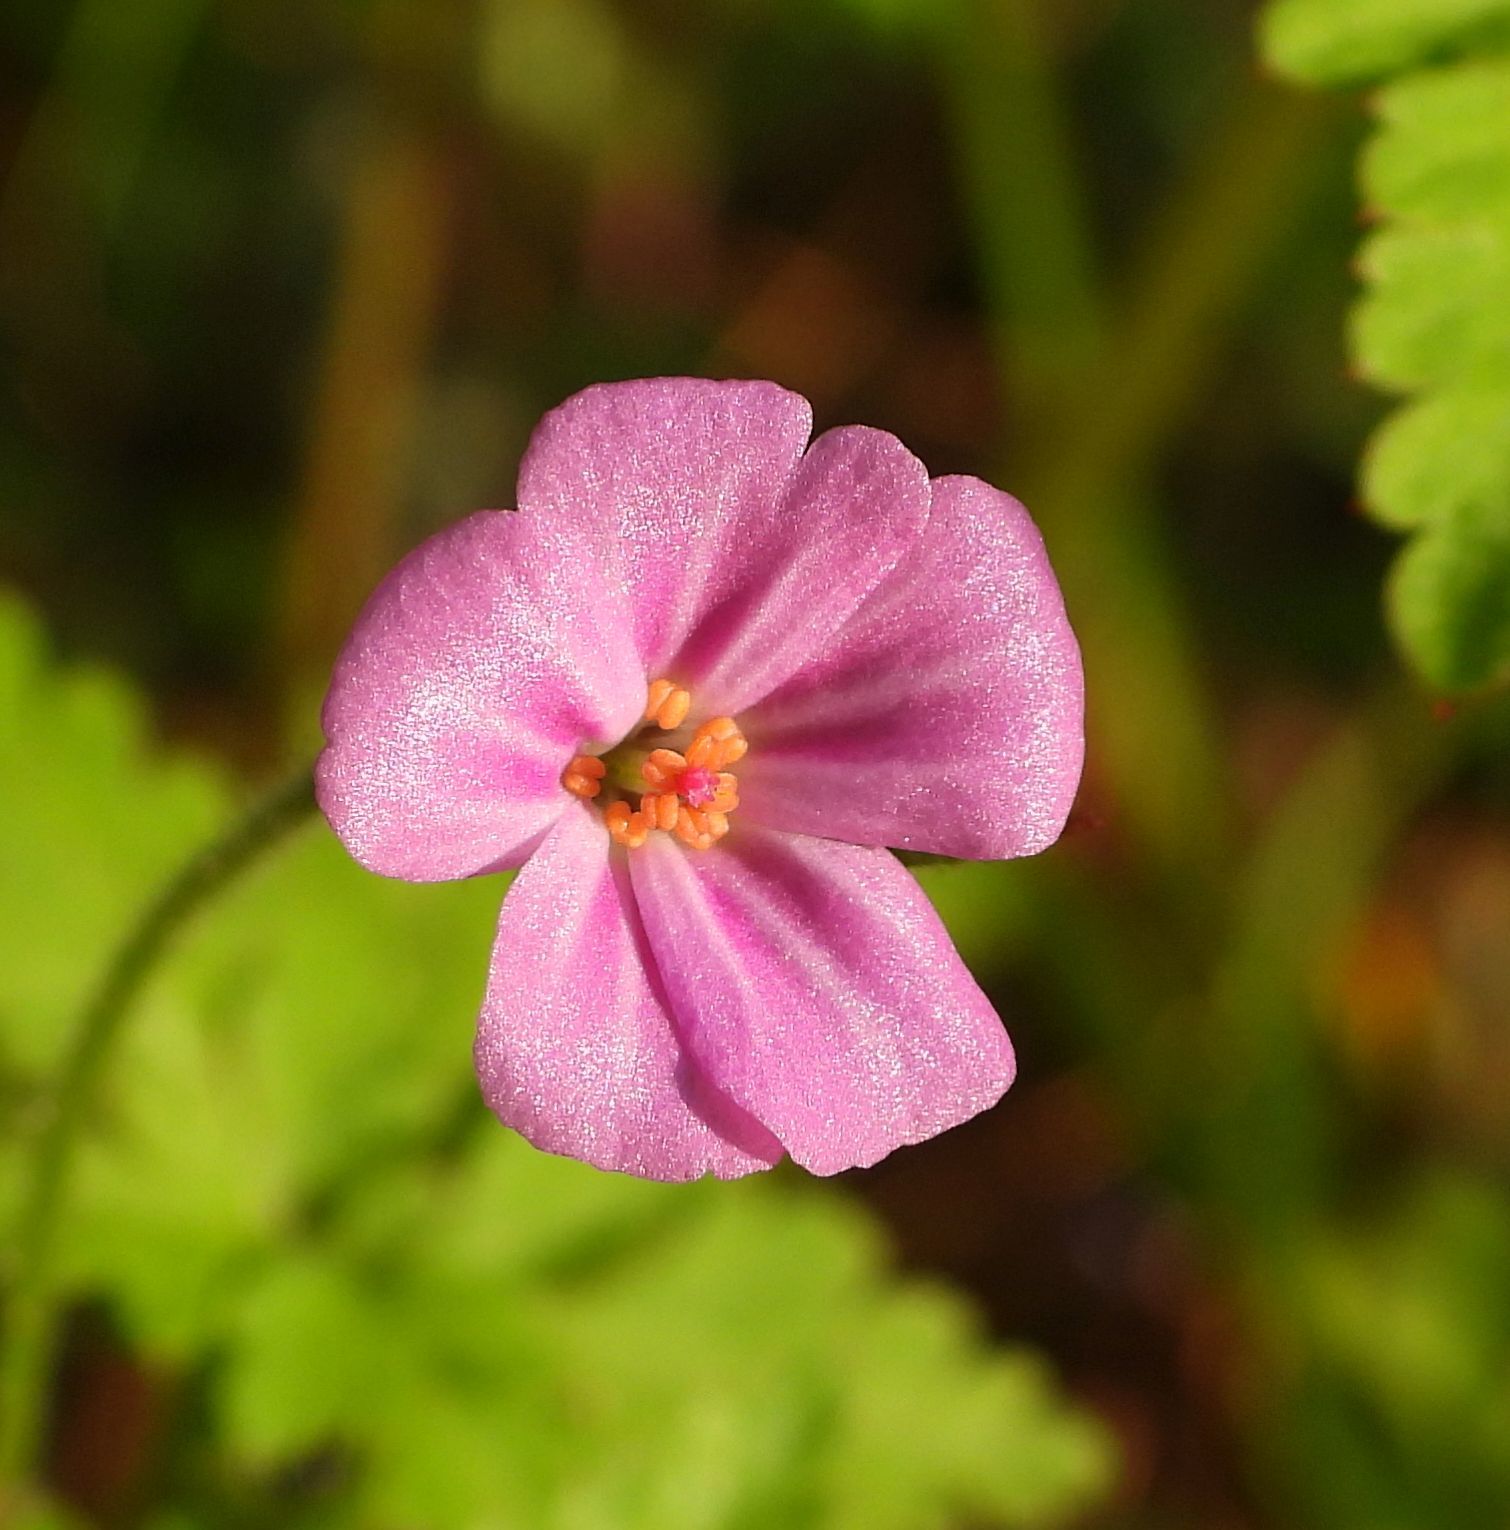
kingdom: Plantae
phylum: Tracheophyta
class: Magnoliopsida
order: Geraniales
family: Geraniaceae
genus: Geranium
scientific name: Geranium robertianum
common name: Herb-robert
